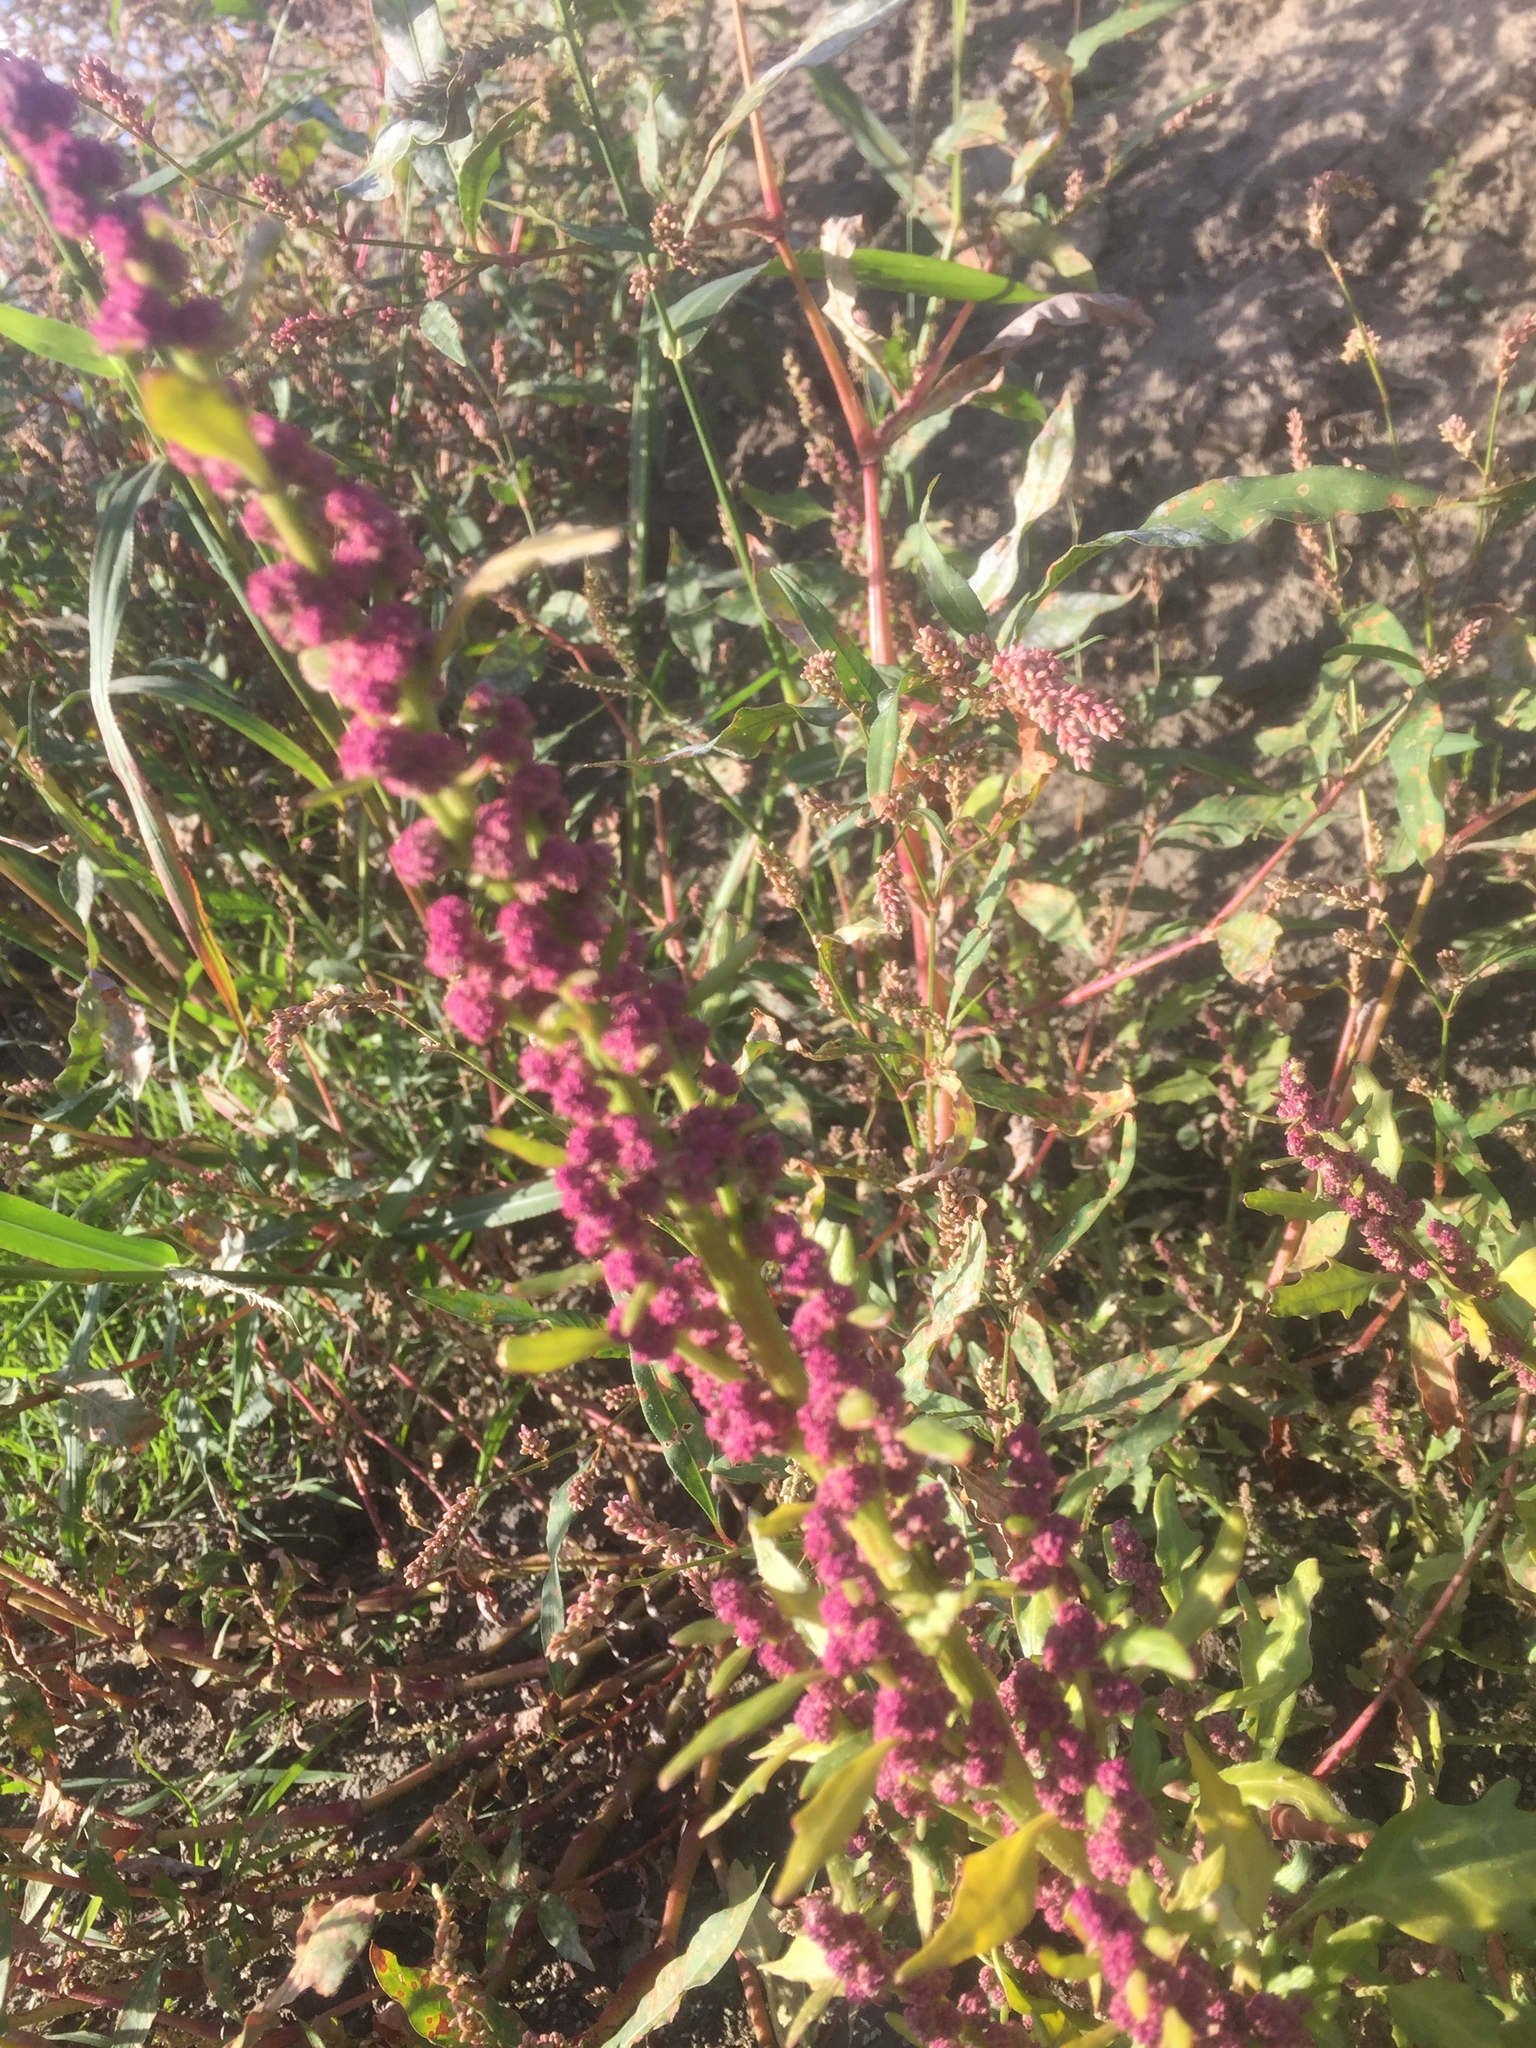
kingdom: Plantae
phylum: Tracheophyta
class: Magnoliopsida
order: Caryophyllales
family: Amaranthaceae
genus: Oxybasis
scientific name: Oxybasis rubra
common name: Red goosefoot
